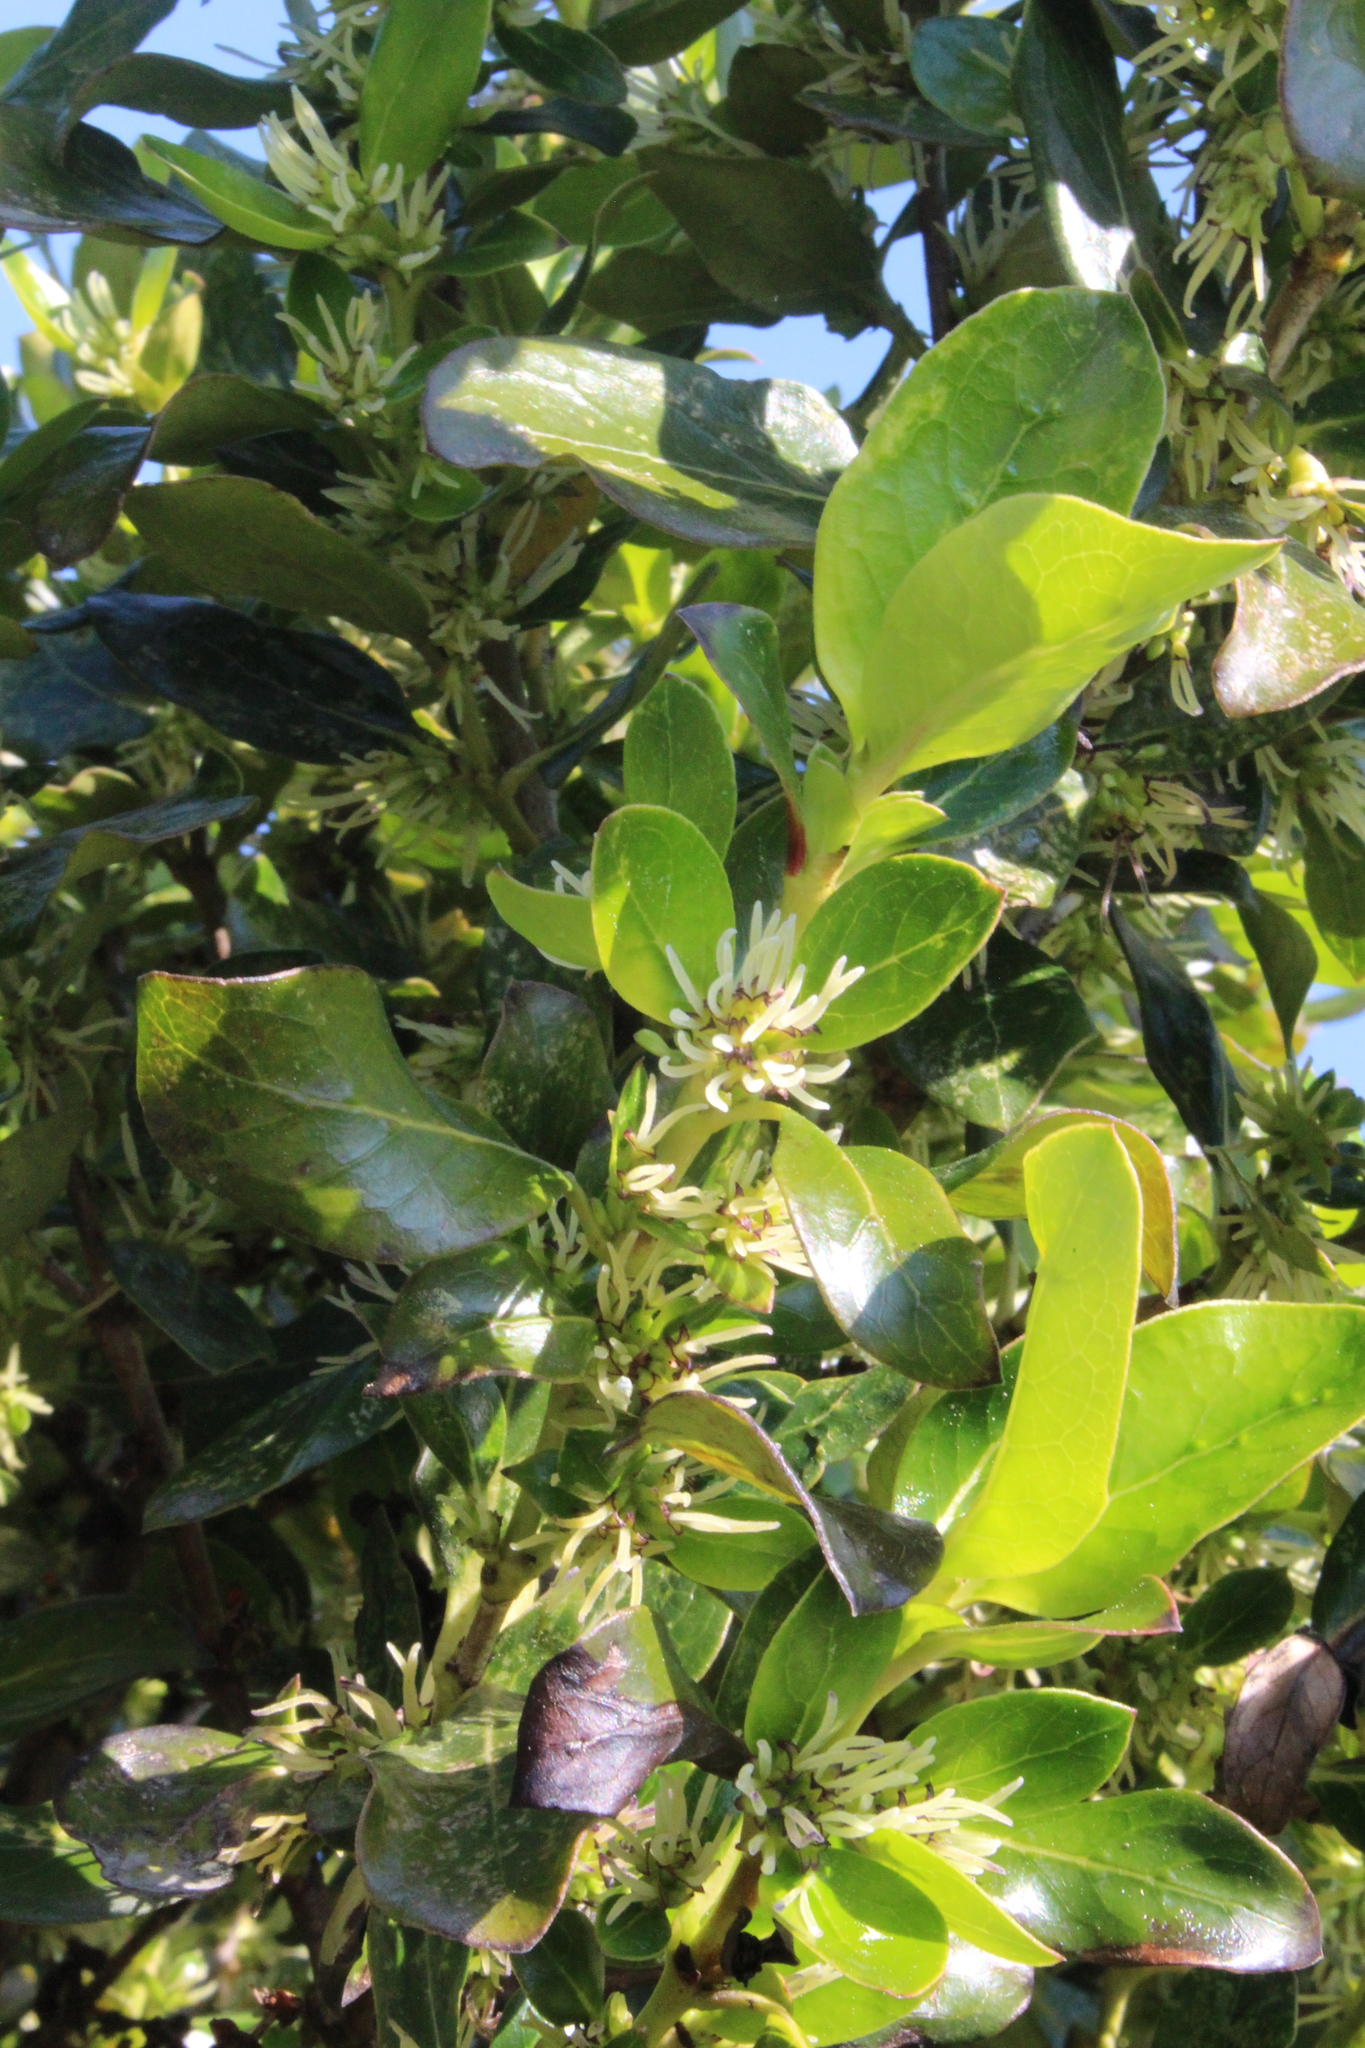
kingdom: Plantae
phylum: Tracheophyta
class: Magnoliopsida
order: Gentianales
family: Rubiaceae
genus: Coprosma
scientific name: Coprosma robusta
